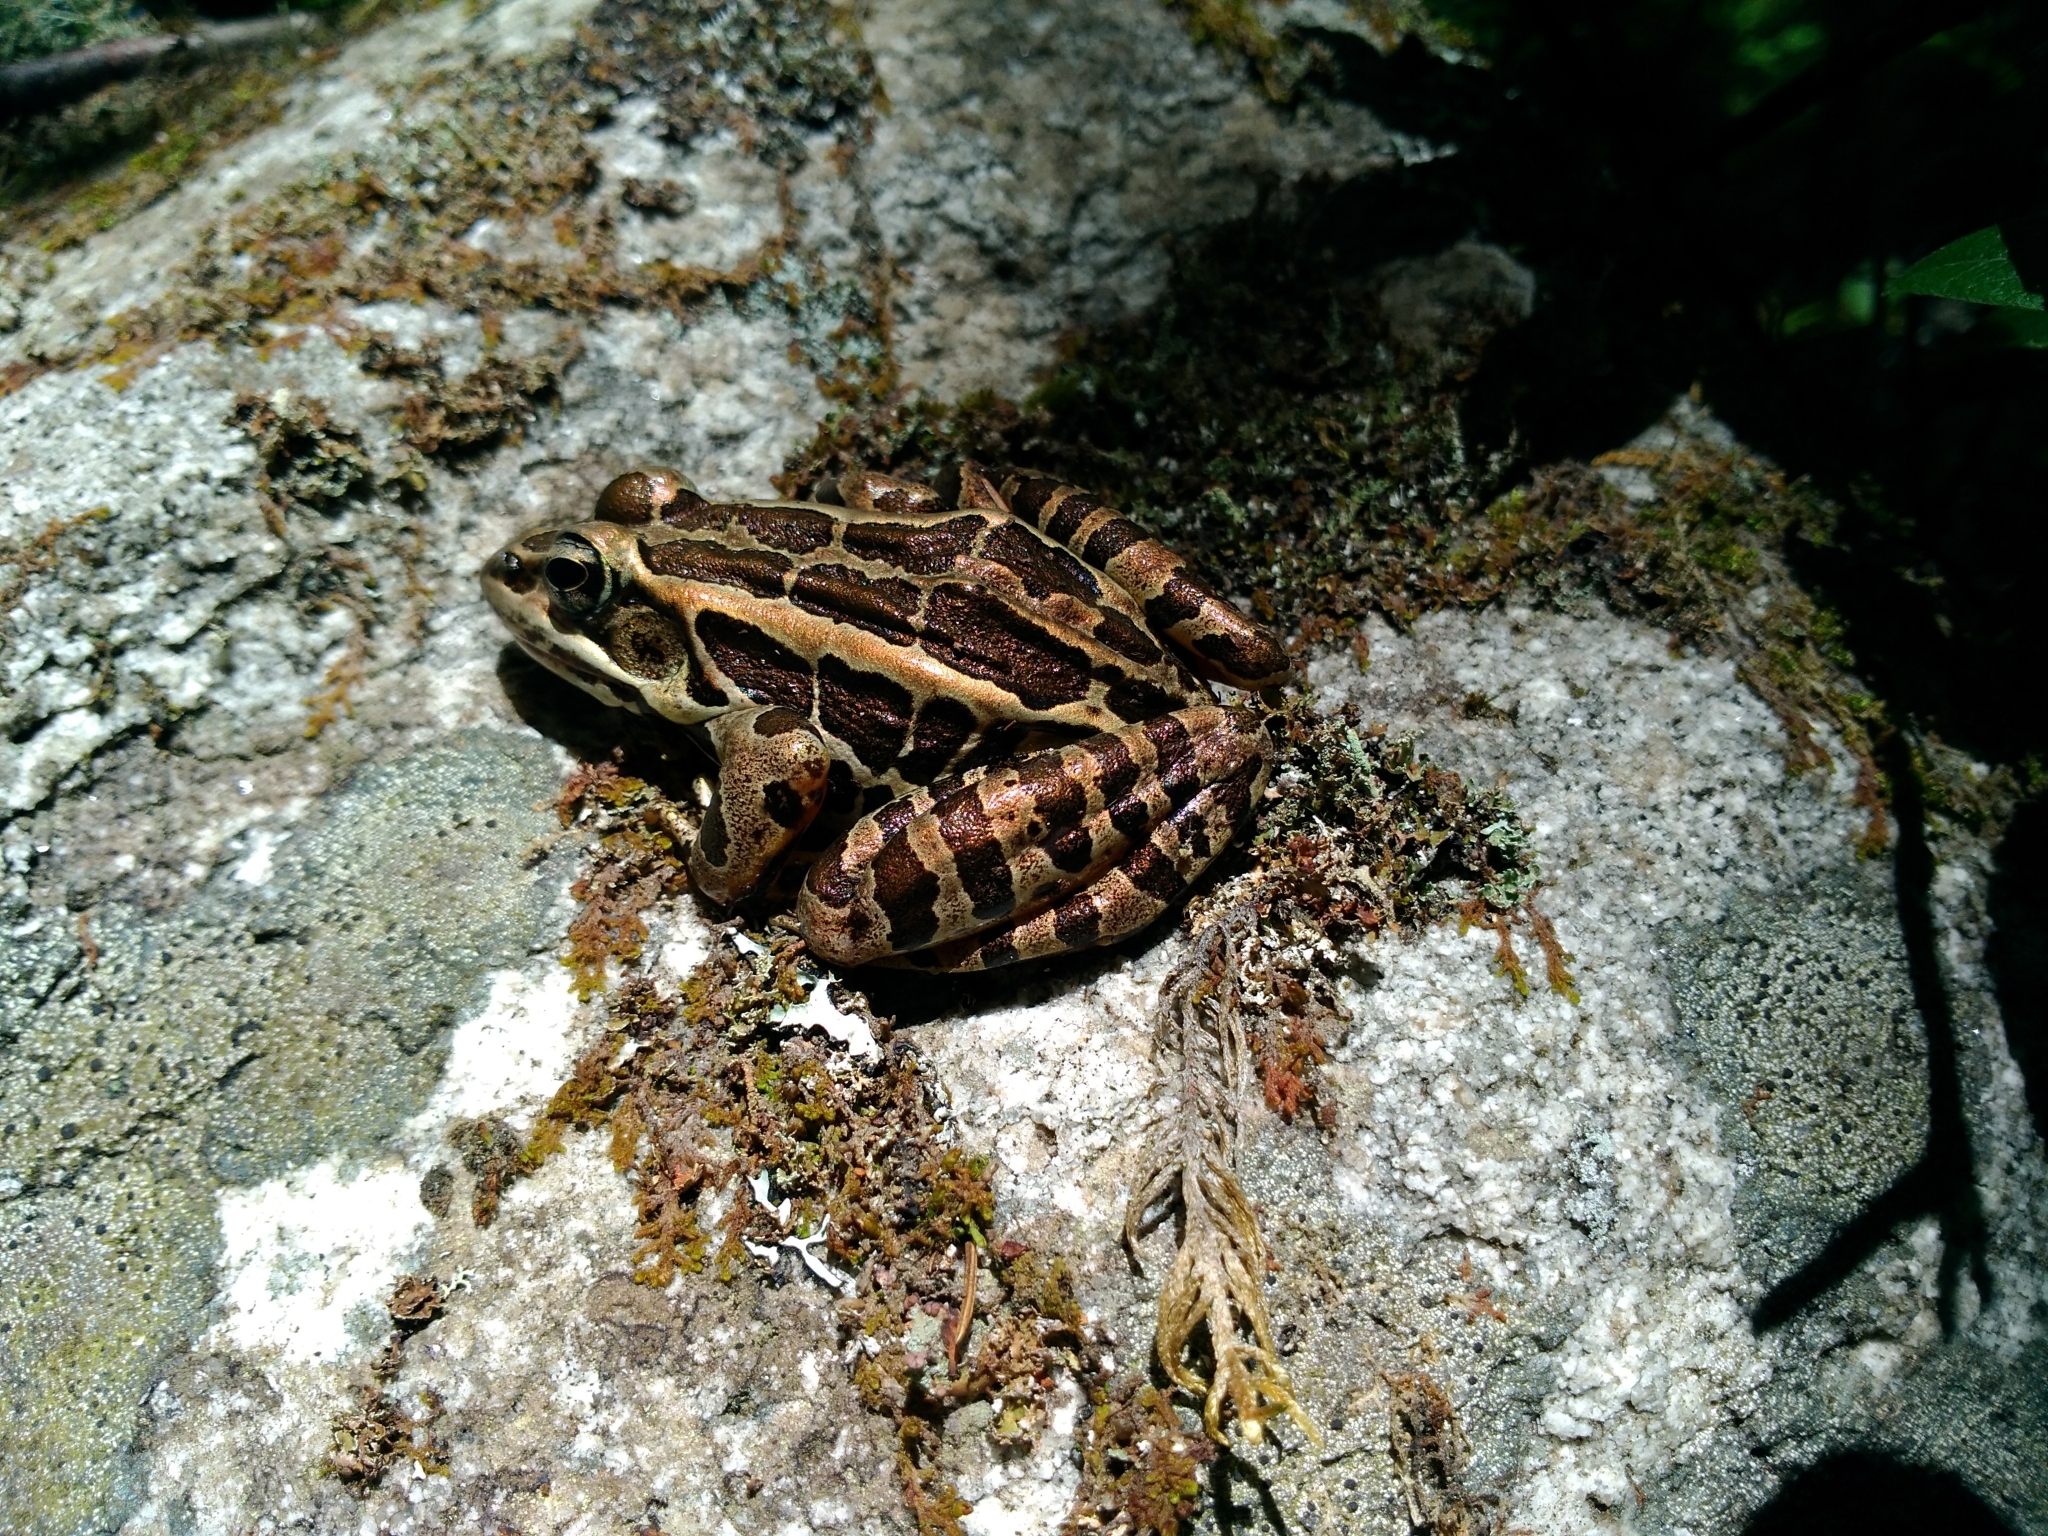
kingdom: Animalia
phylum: Chordata
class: Amphibia
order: Anura
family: Ranidae
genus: Lithobates
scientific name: Lithobates palustris
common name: Pickerel frog
